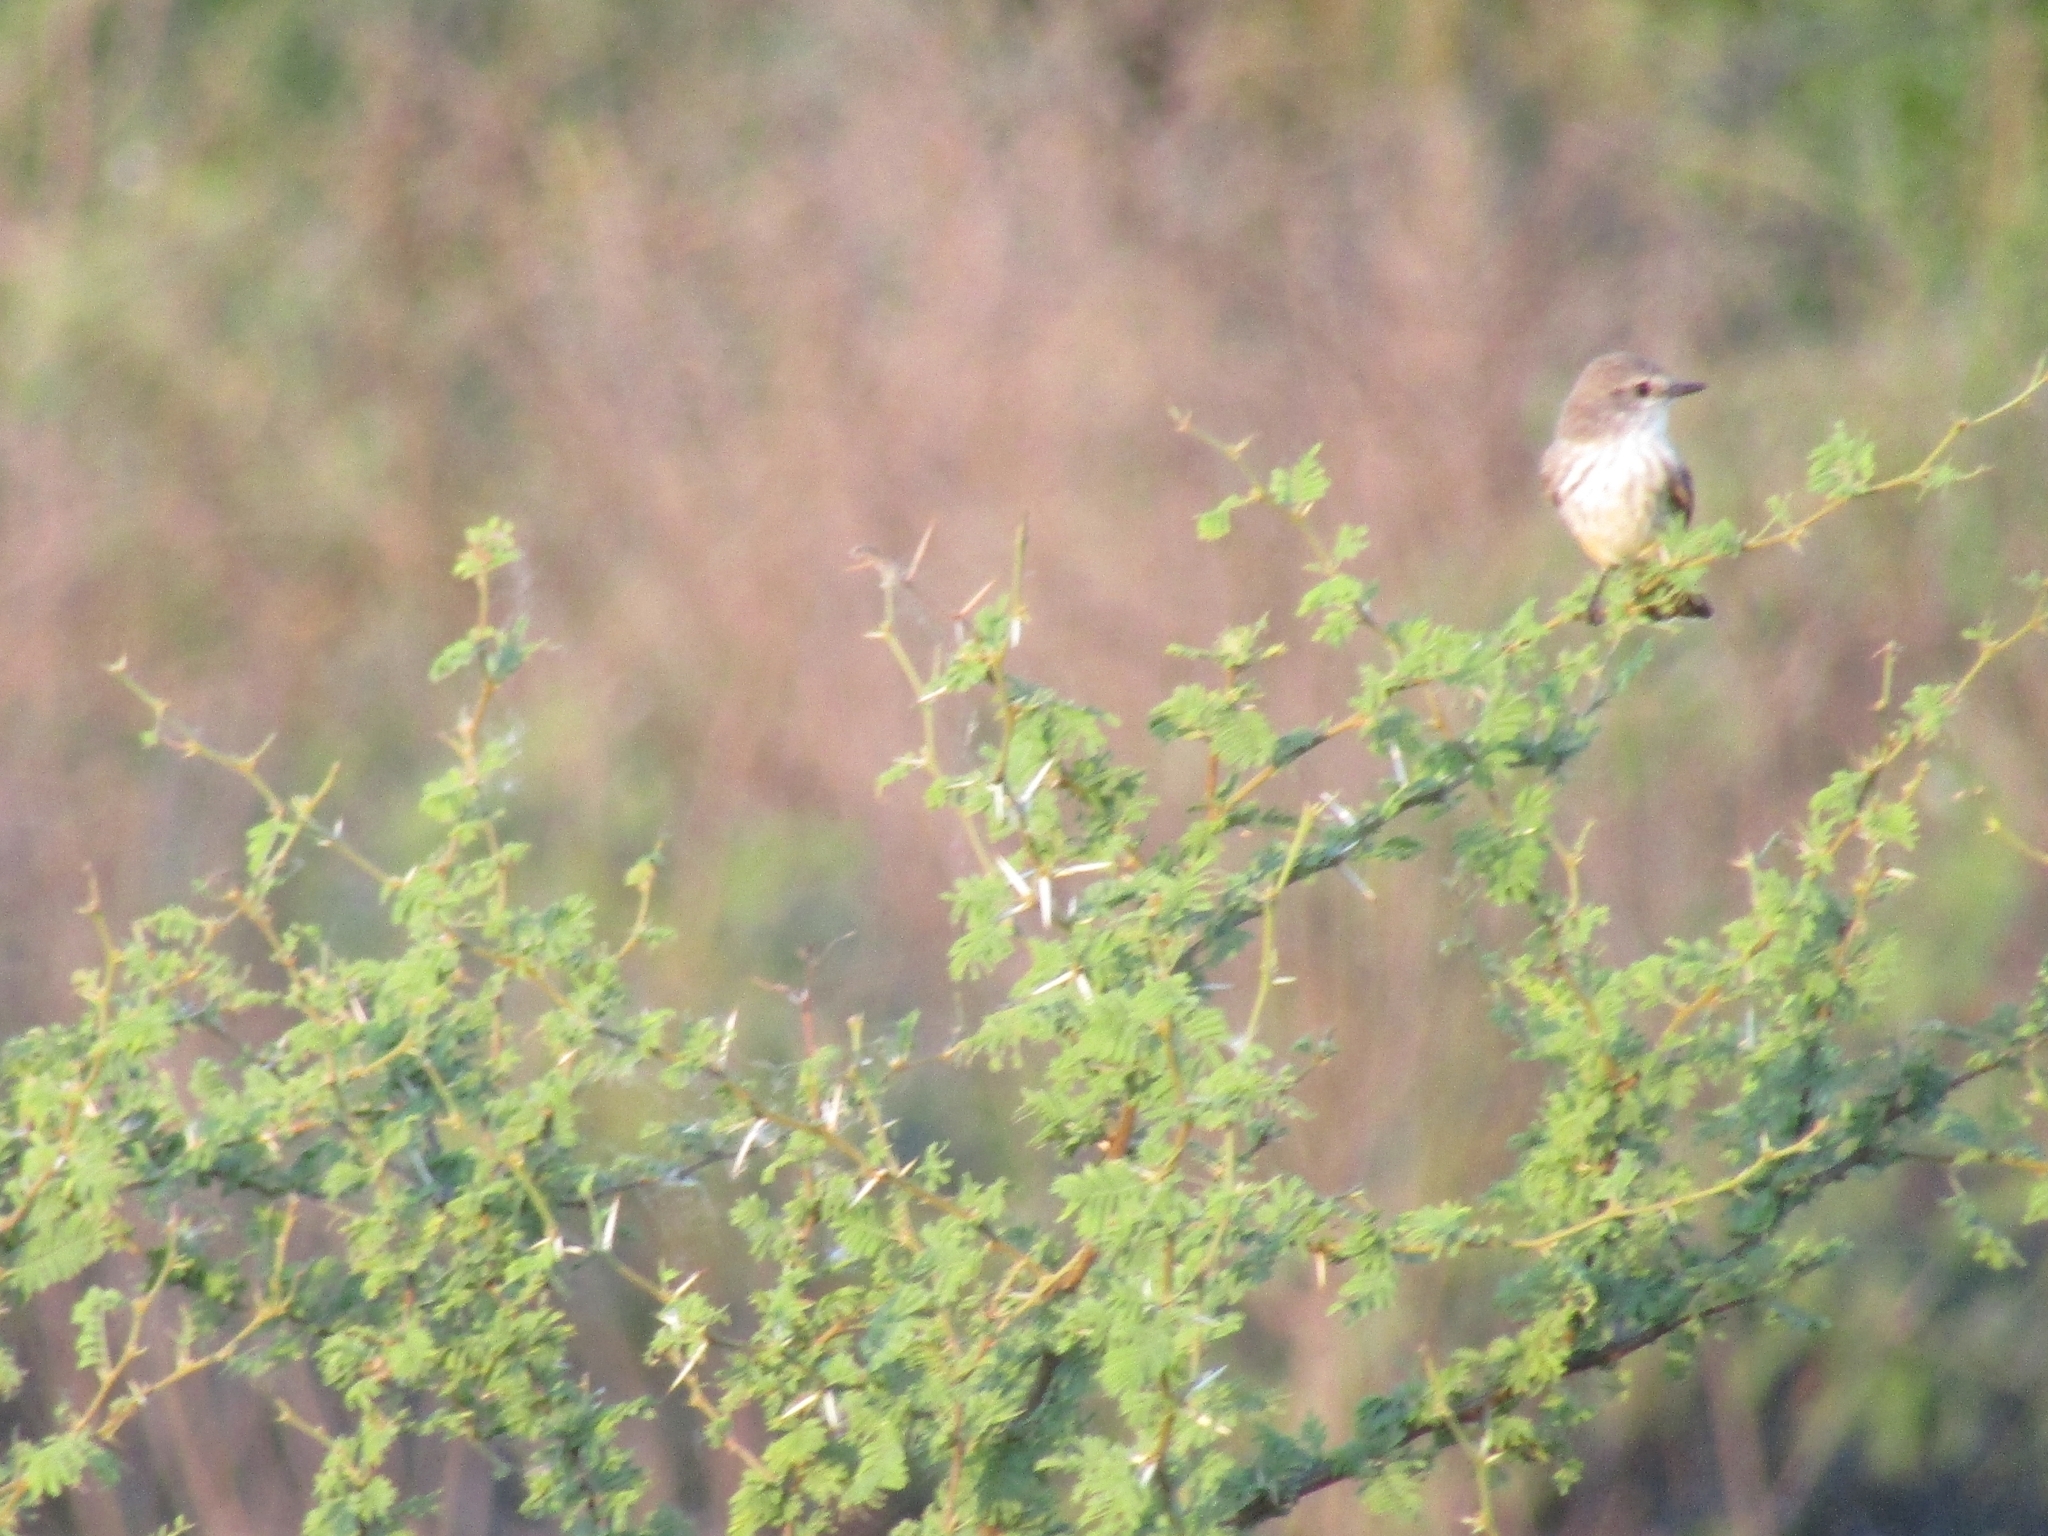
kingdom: Animalia
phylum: Chordata
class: Aves
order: Passeriformes
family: Tyrannidae
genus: Pyrocephalus
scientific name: Pyrocephalus rubinus
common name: Vermilion flycatcher
